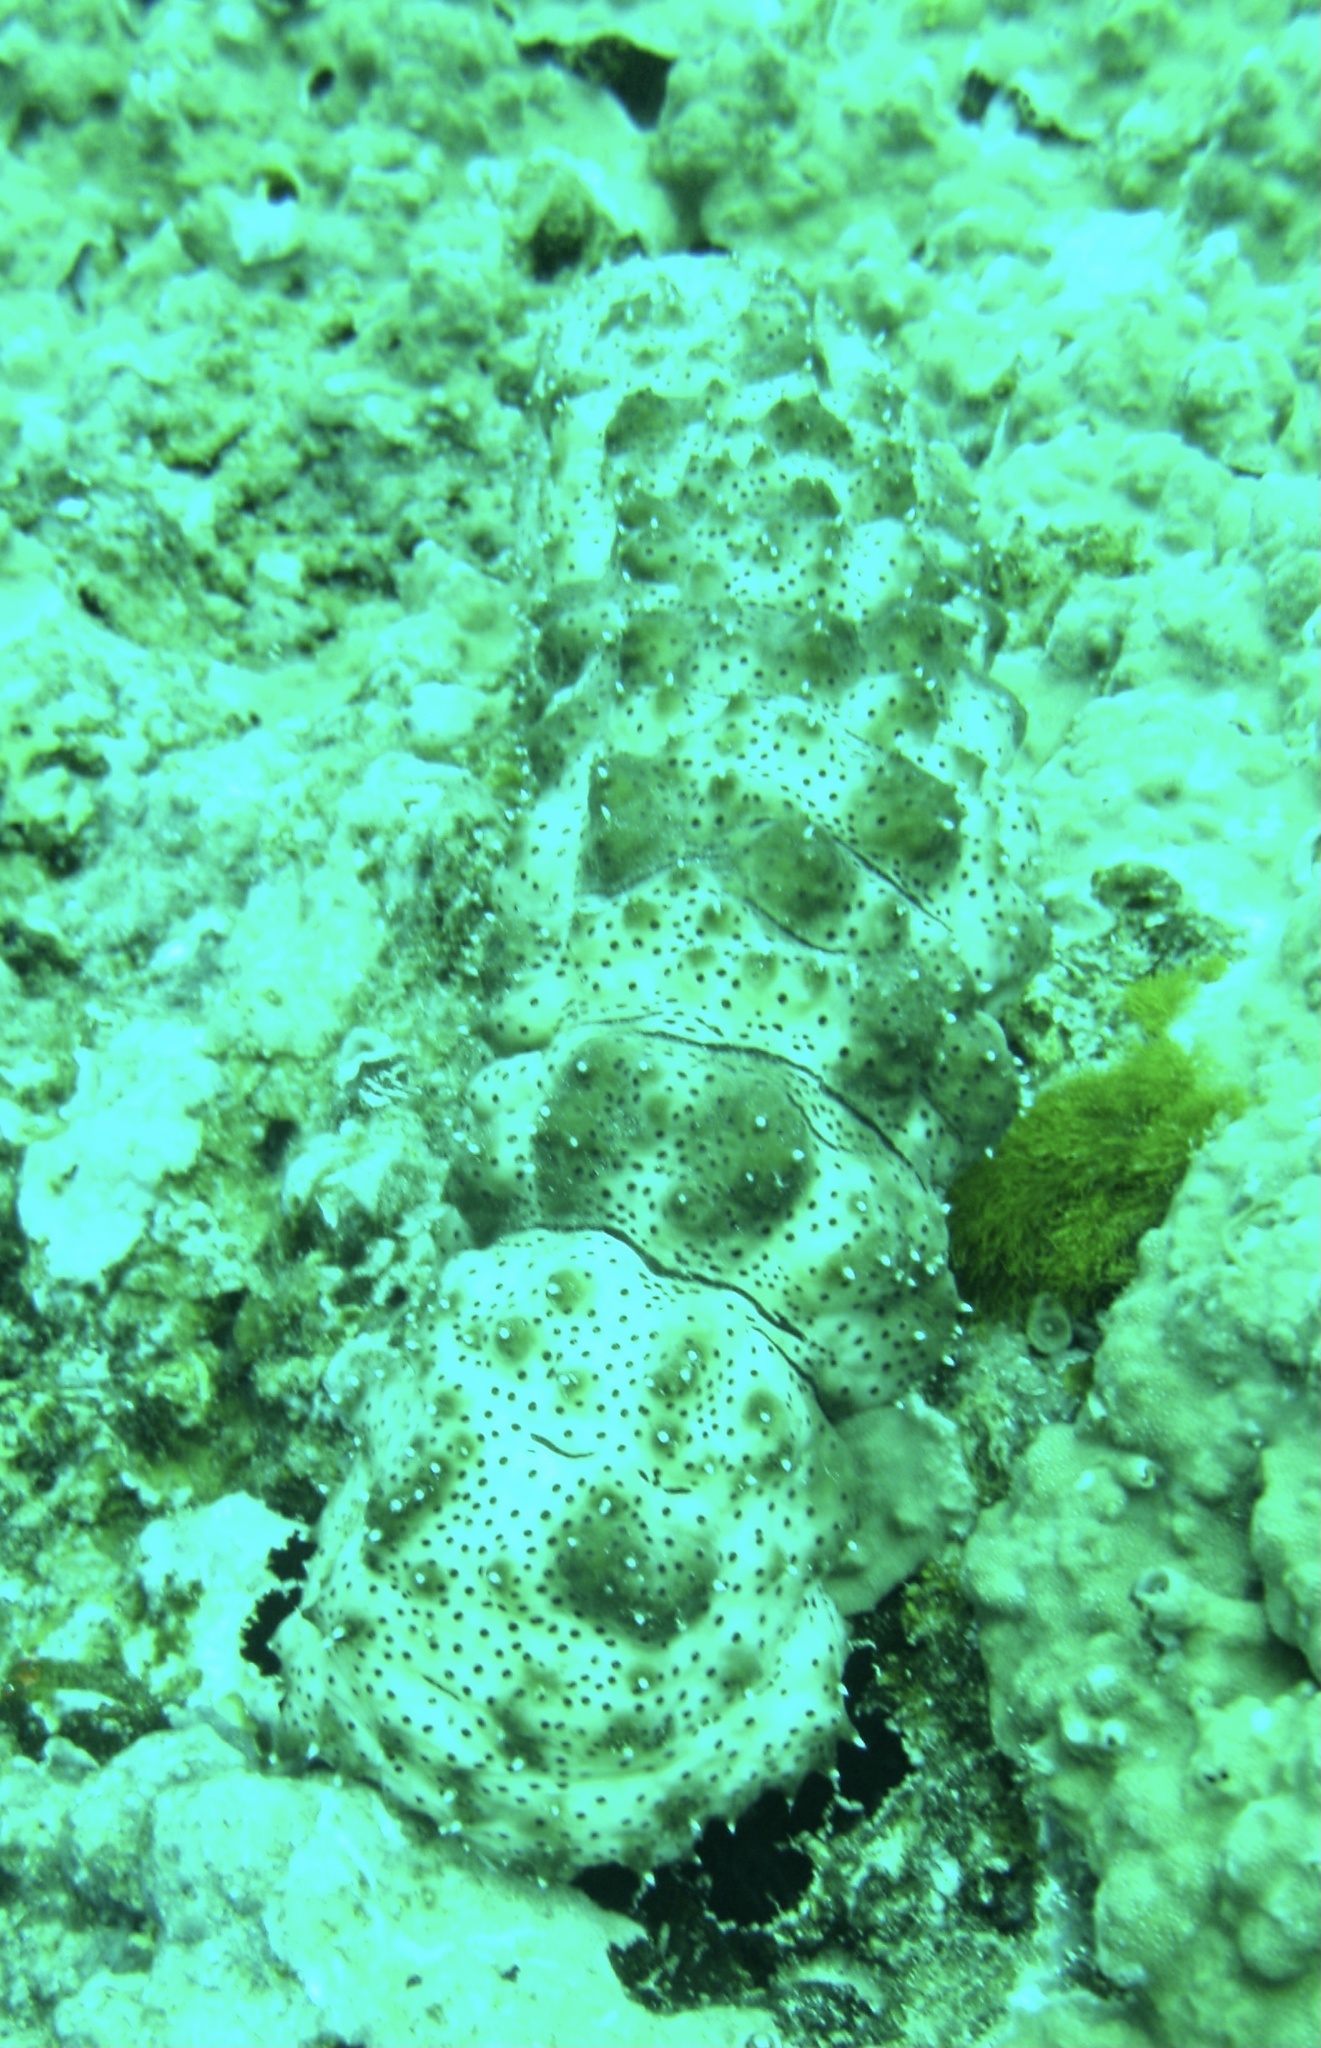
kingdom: Animalia
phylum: Echinodermata
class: Holothuroidea
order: Holothuriida
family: Holothuriidae
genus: Pearsonothuria
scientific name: Pearsonothuria graeffei
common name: Blackspotted sea cucumber
